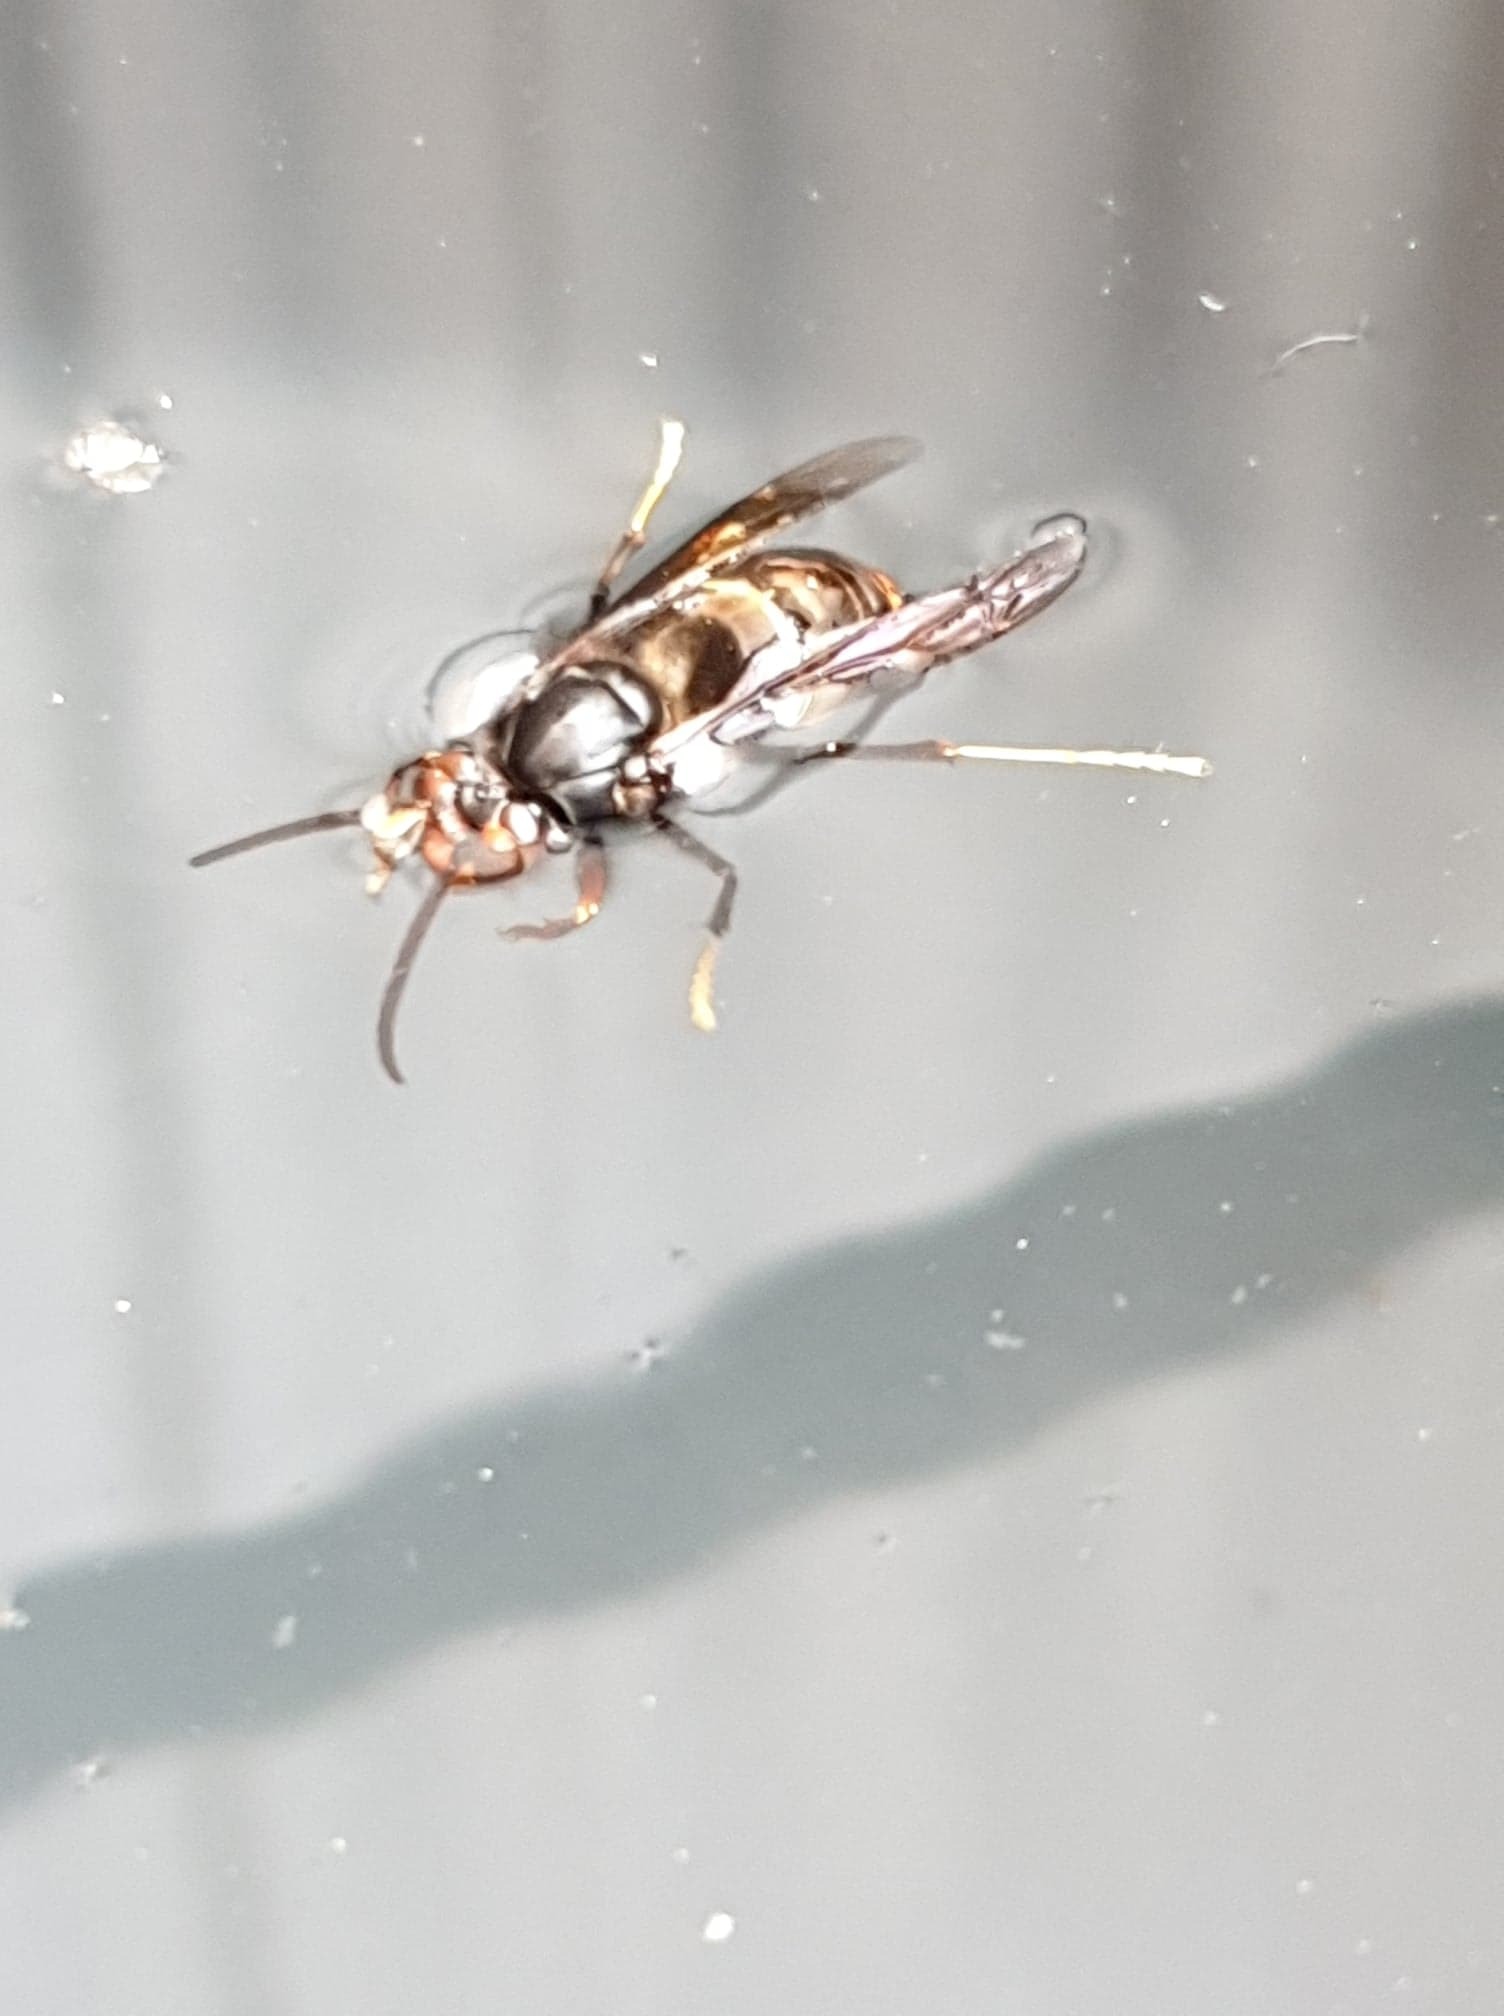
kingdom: Animalia
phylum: Arthropoda
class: Insecta
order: Hymenoptera
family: Vespidae
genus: Vespa
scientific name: Vespa velutina
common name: Asian hornet
